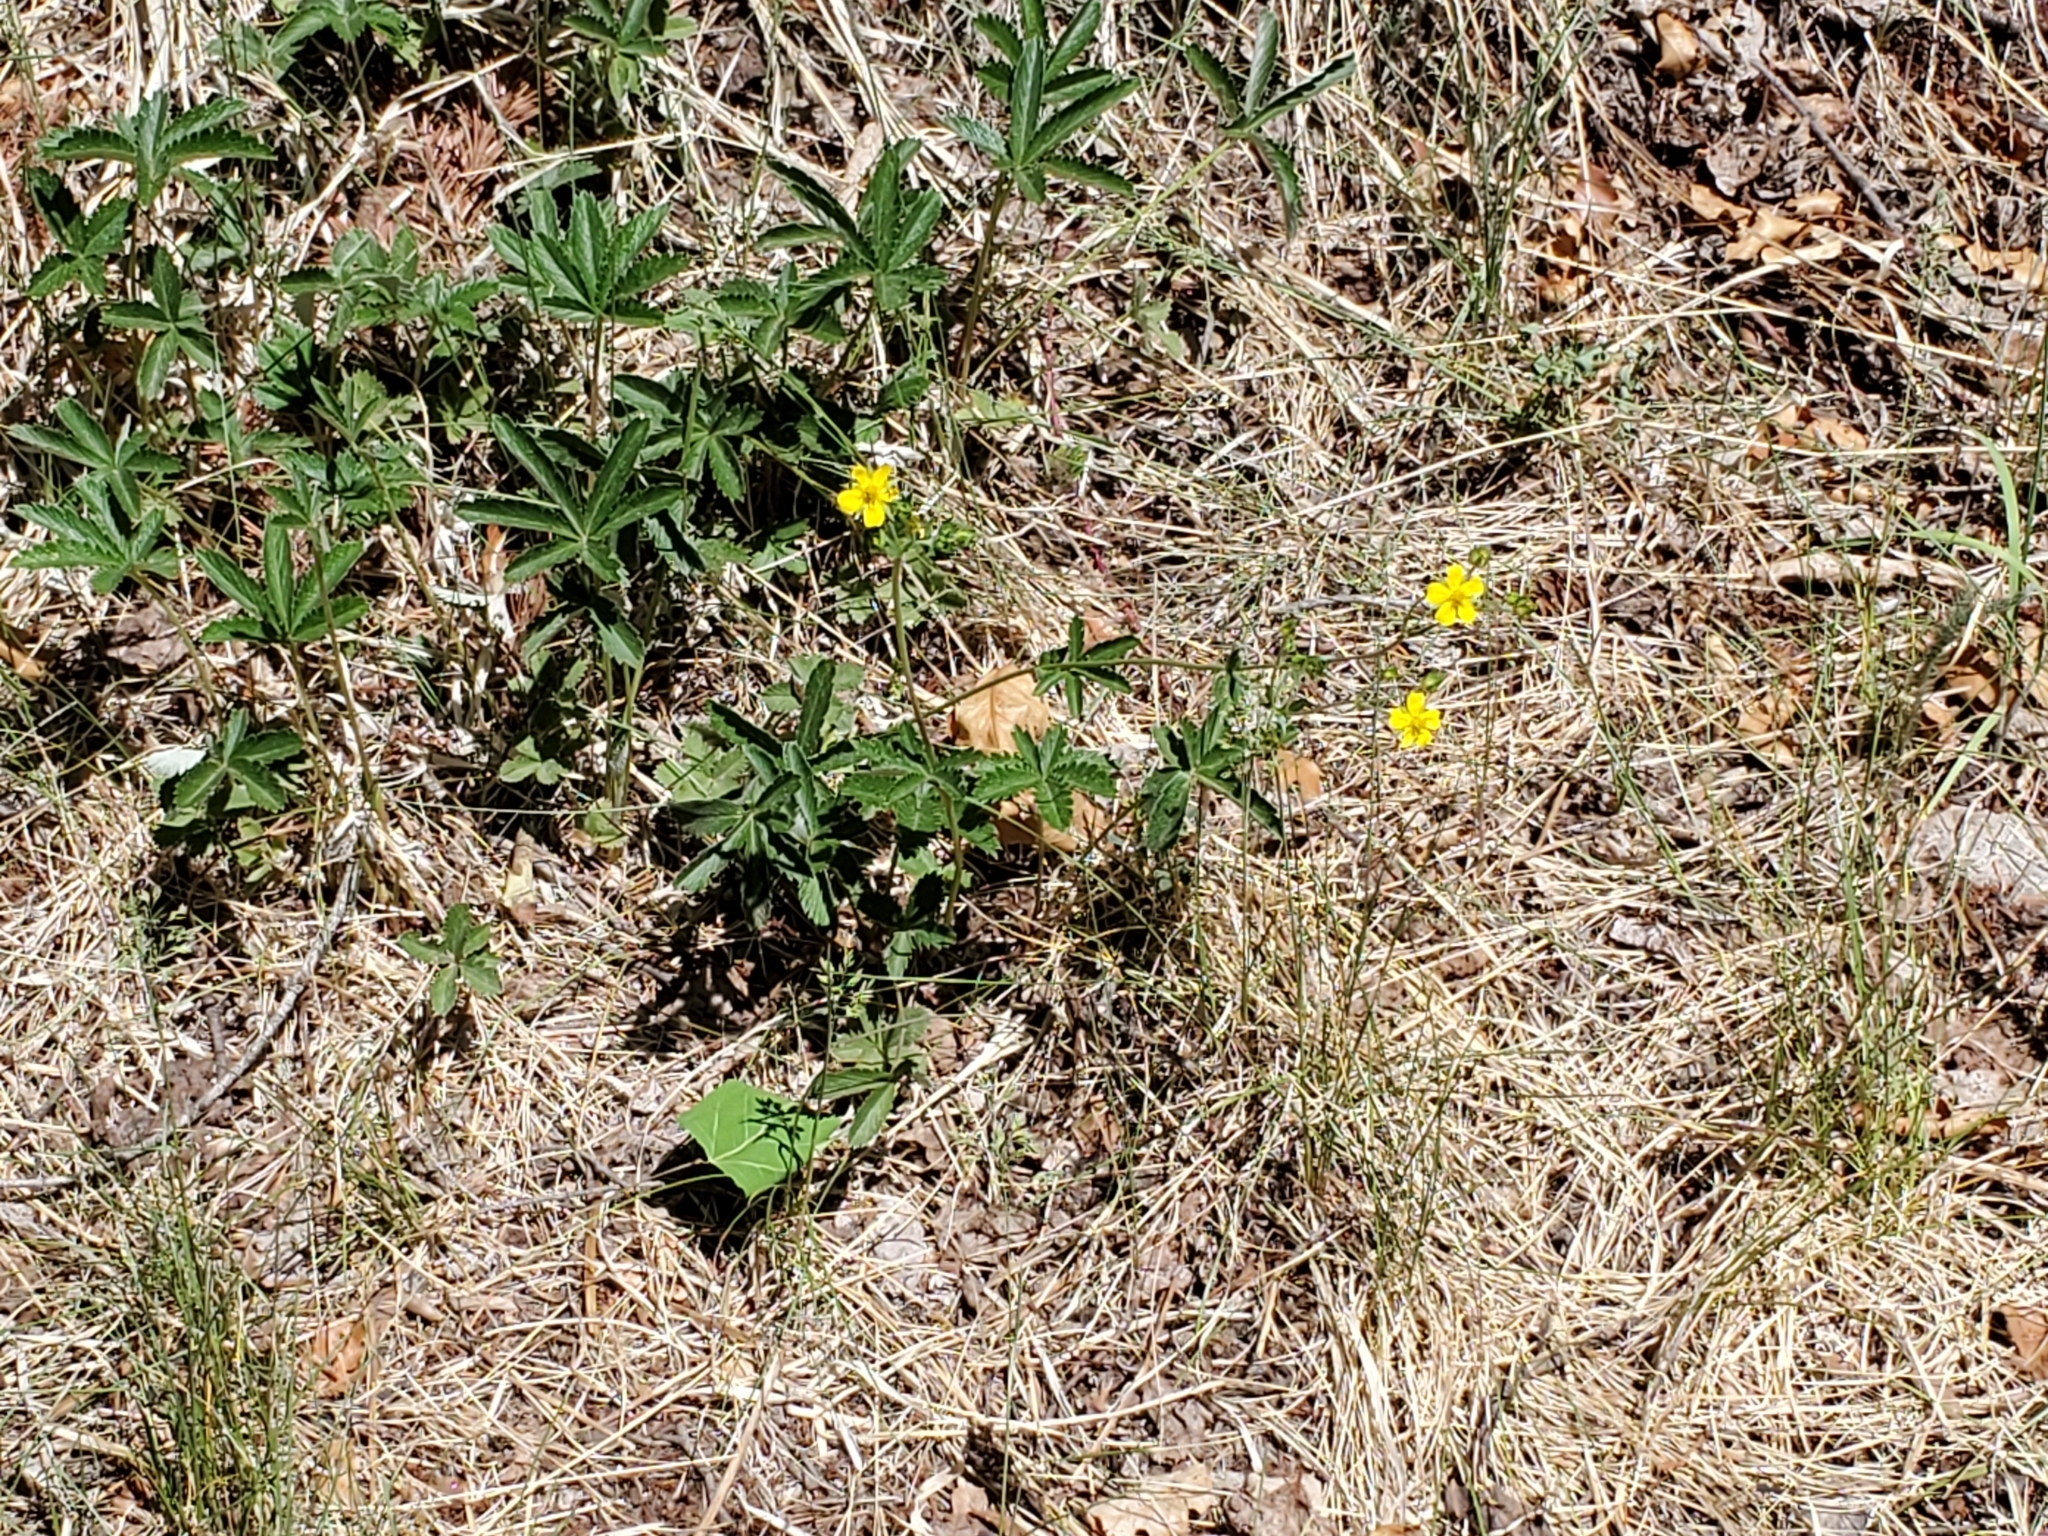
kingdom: Plantae
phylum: Tracheophyta
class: Magnoliopsida
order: Rosales
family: Rosaceae
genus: Potentilla
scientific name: Potentilla pulcherrima
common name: Beautiful cinquefoil
